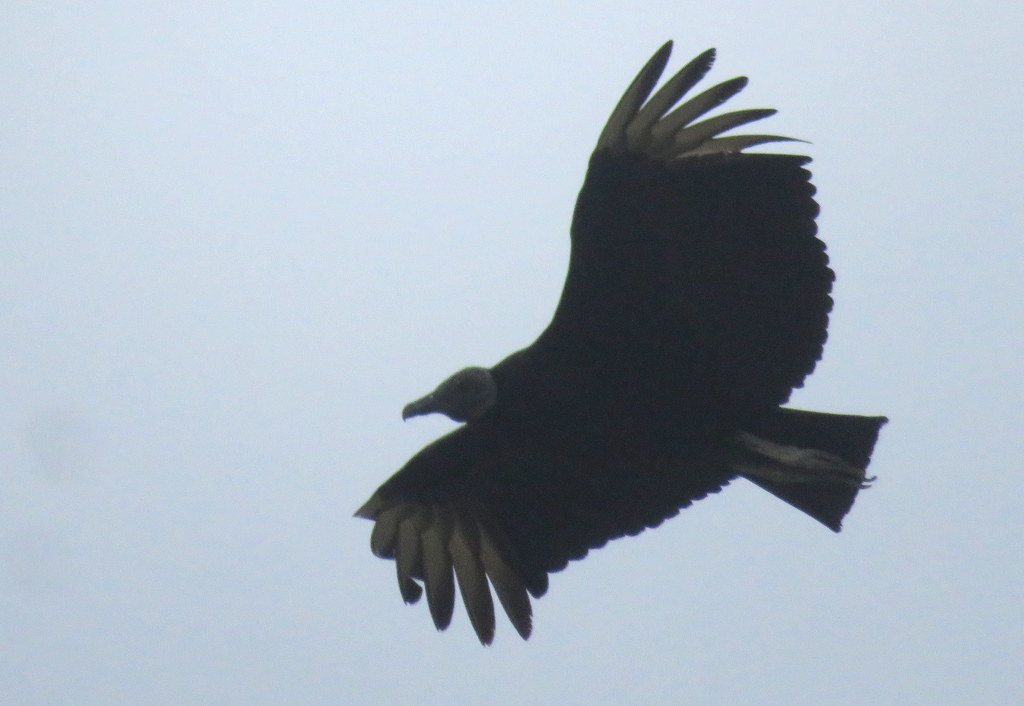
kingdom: Animalia
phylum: Chordata
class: Aves
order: Accipitriformes
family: Cathartidae
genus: Coragyps
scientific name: Coragyps atratus
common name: Black vulture
